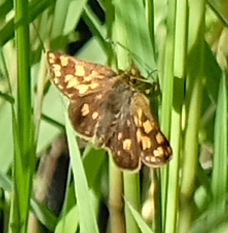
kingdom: Animalia
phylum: Arthropoda
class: Insecta
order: Lepidoptera
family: Hesperiidae
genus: Carterocephalus
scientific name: Carterocephalus skada
